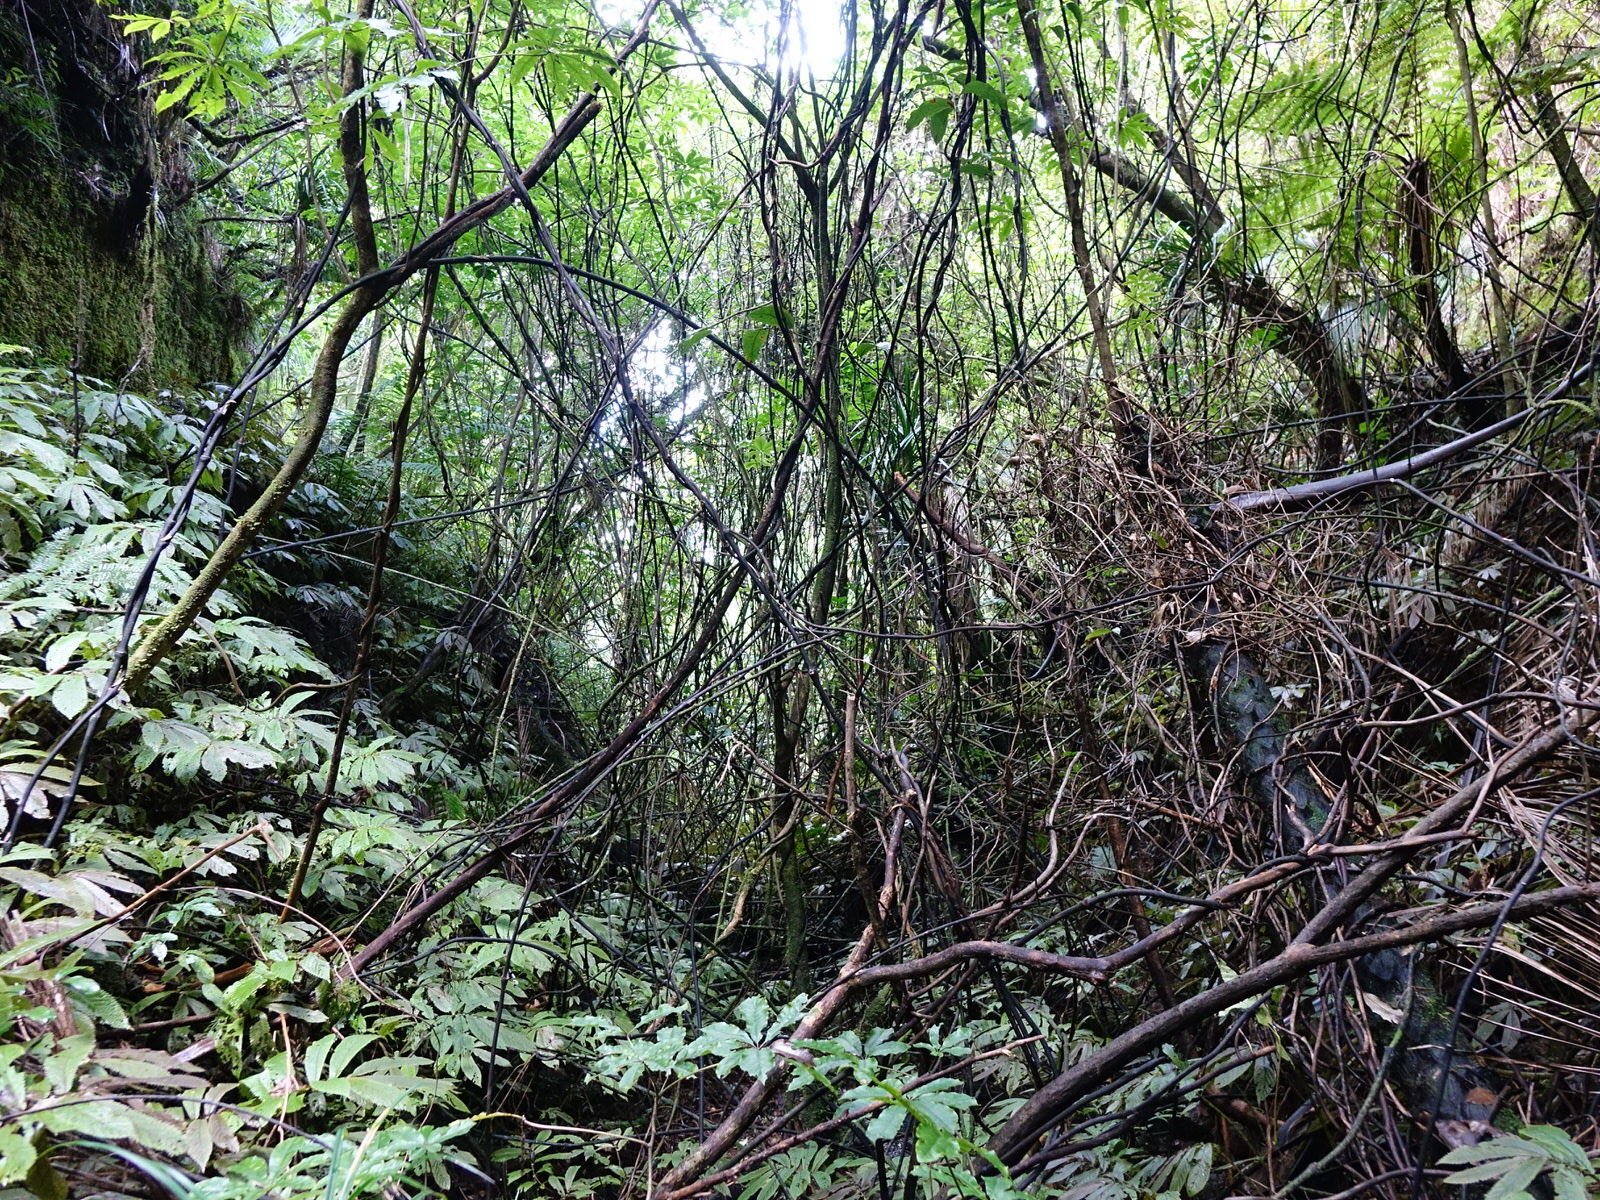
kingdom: Plantae
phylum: Tracheophyta
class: Liliopsida
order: Liliales
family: Ripogonaceae
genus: Ripogonum
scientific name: Ripogonum scandens
